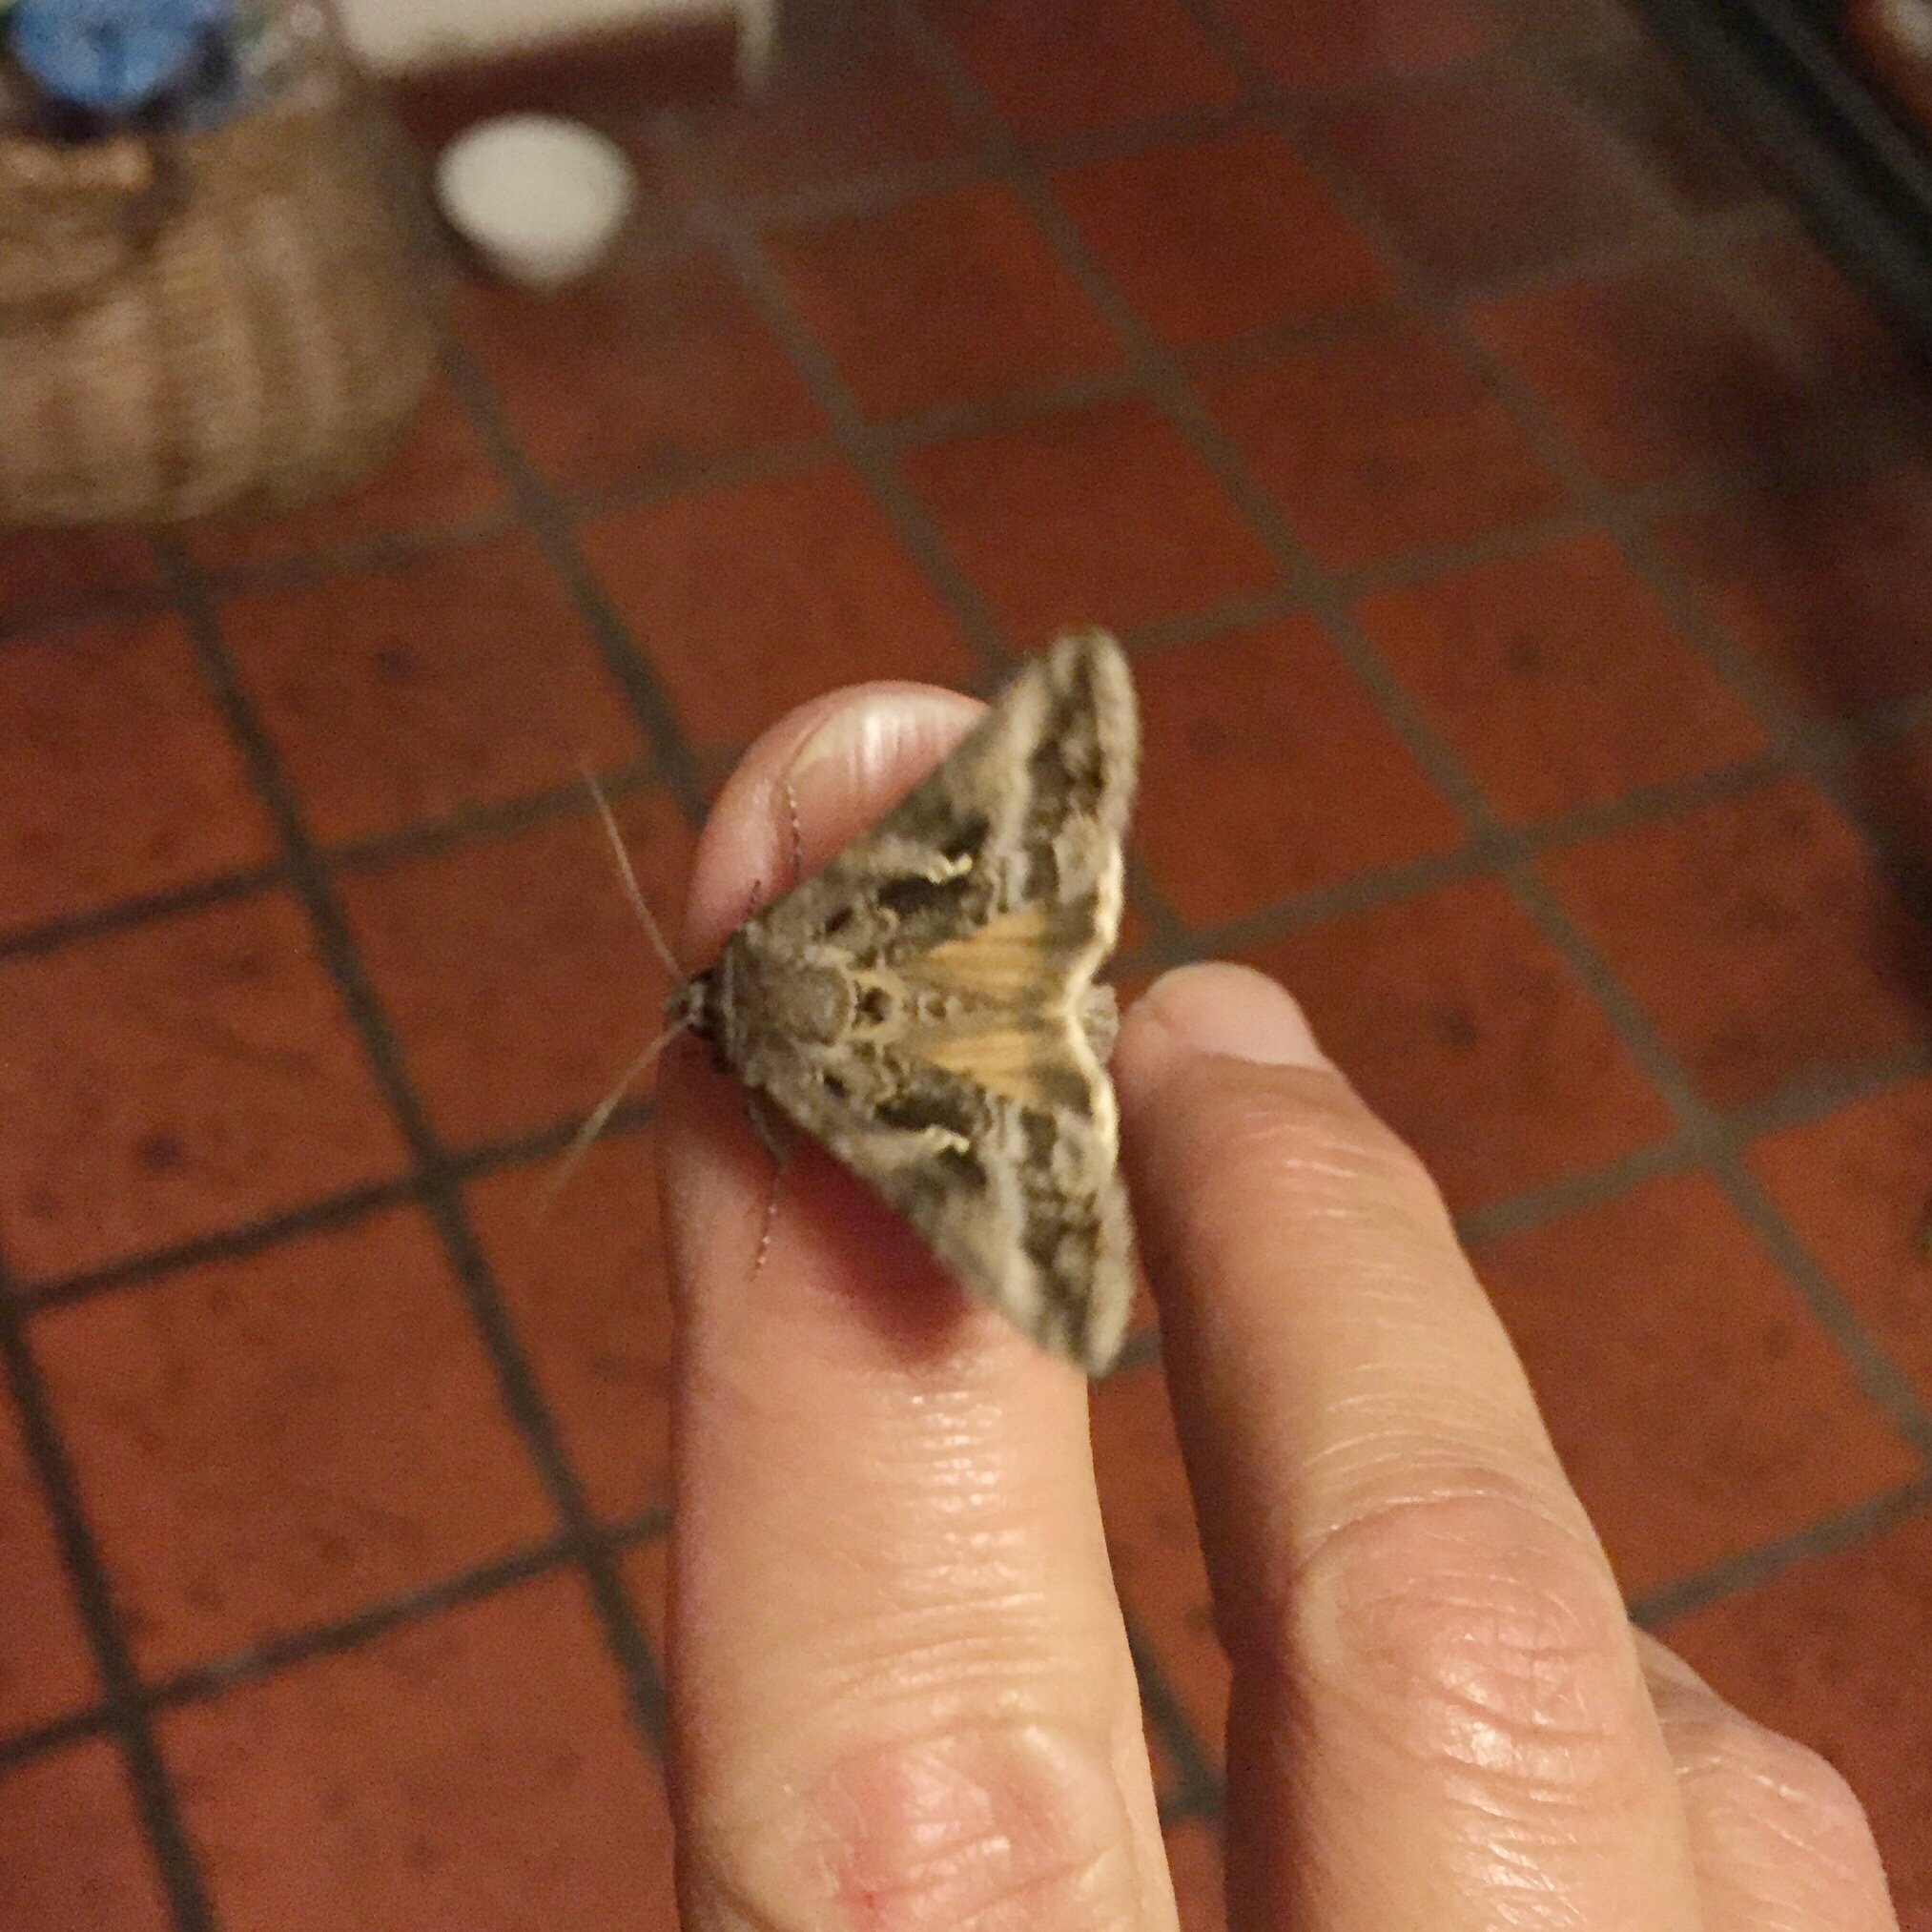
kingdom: Animalia
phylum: Arthropoda
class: Insecta
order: Lepidoptera
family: Noctuidae
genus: Rachiplusia
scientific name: Rachiplusia nu
